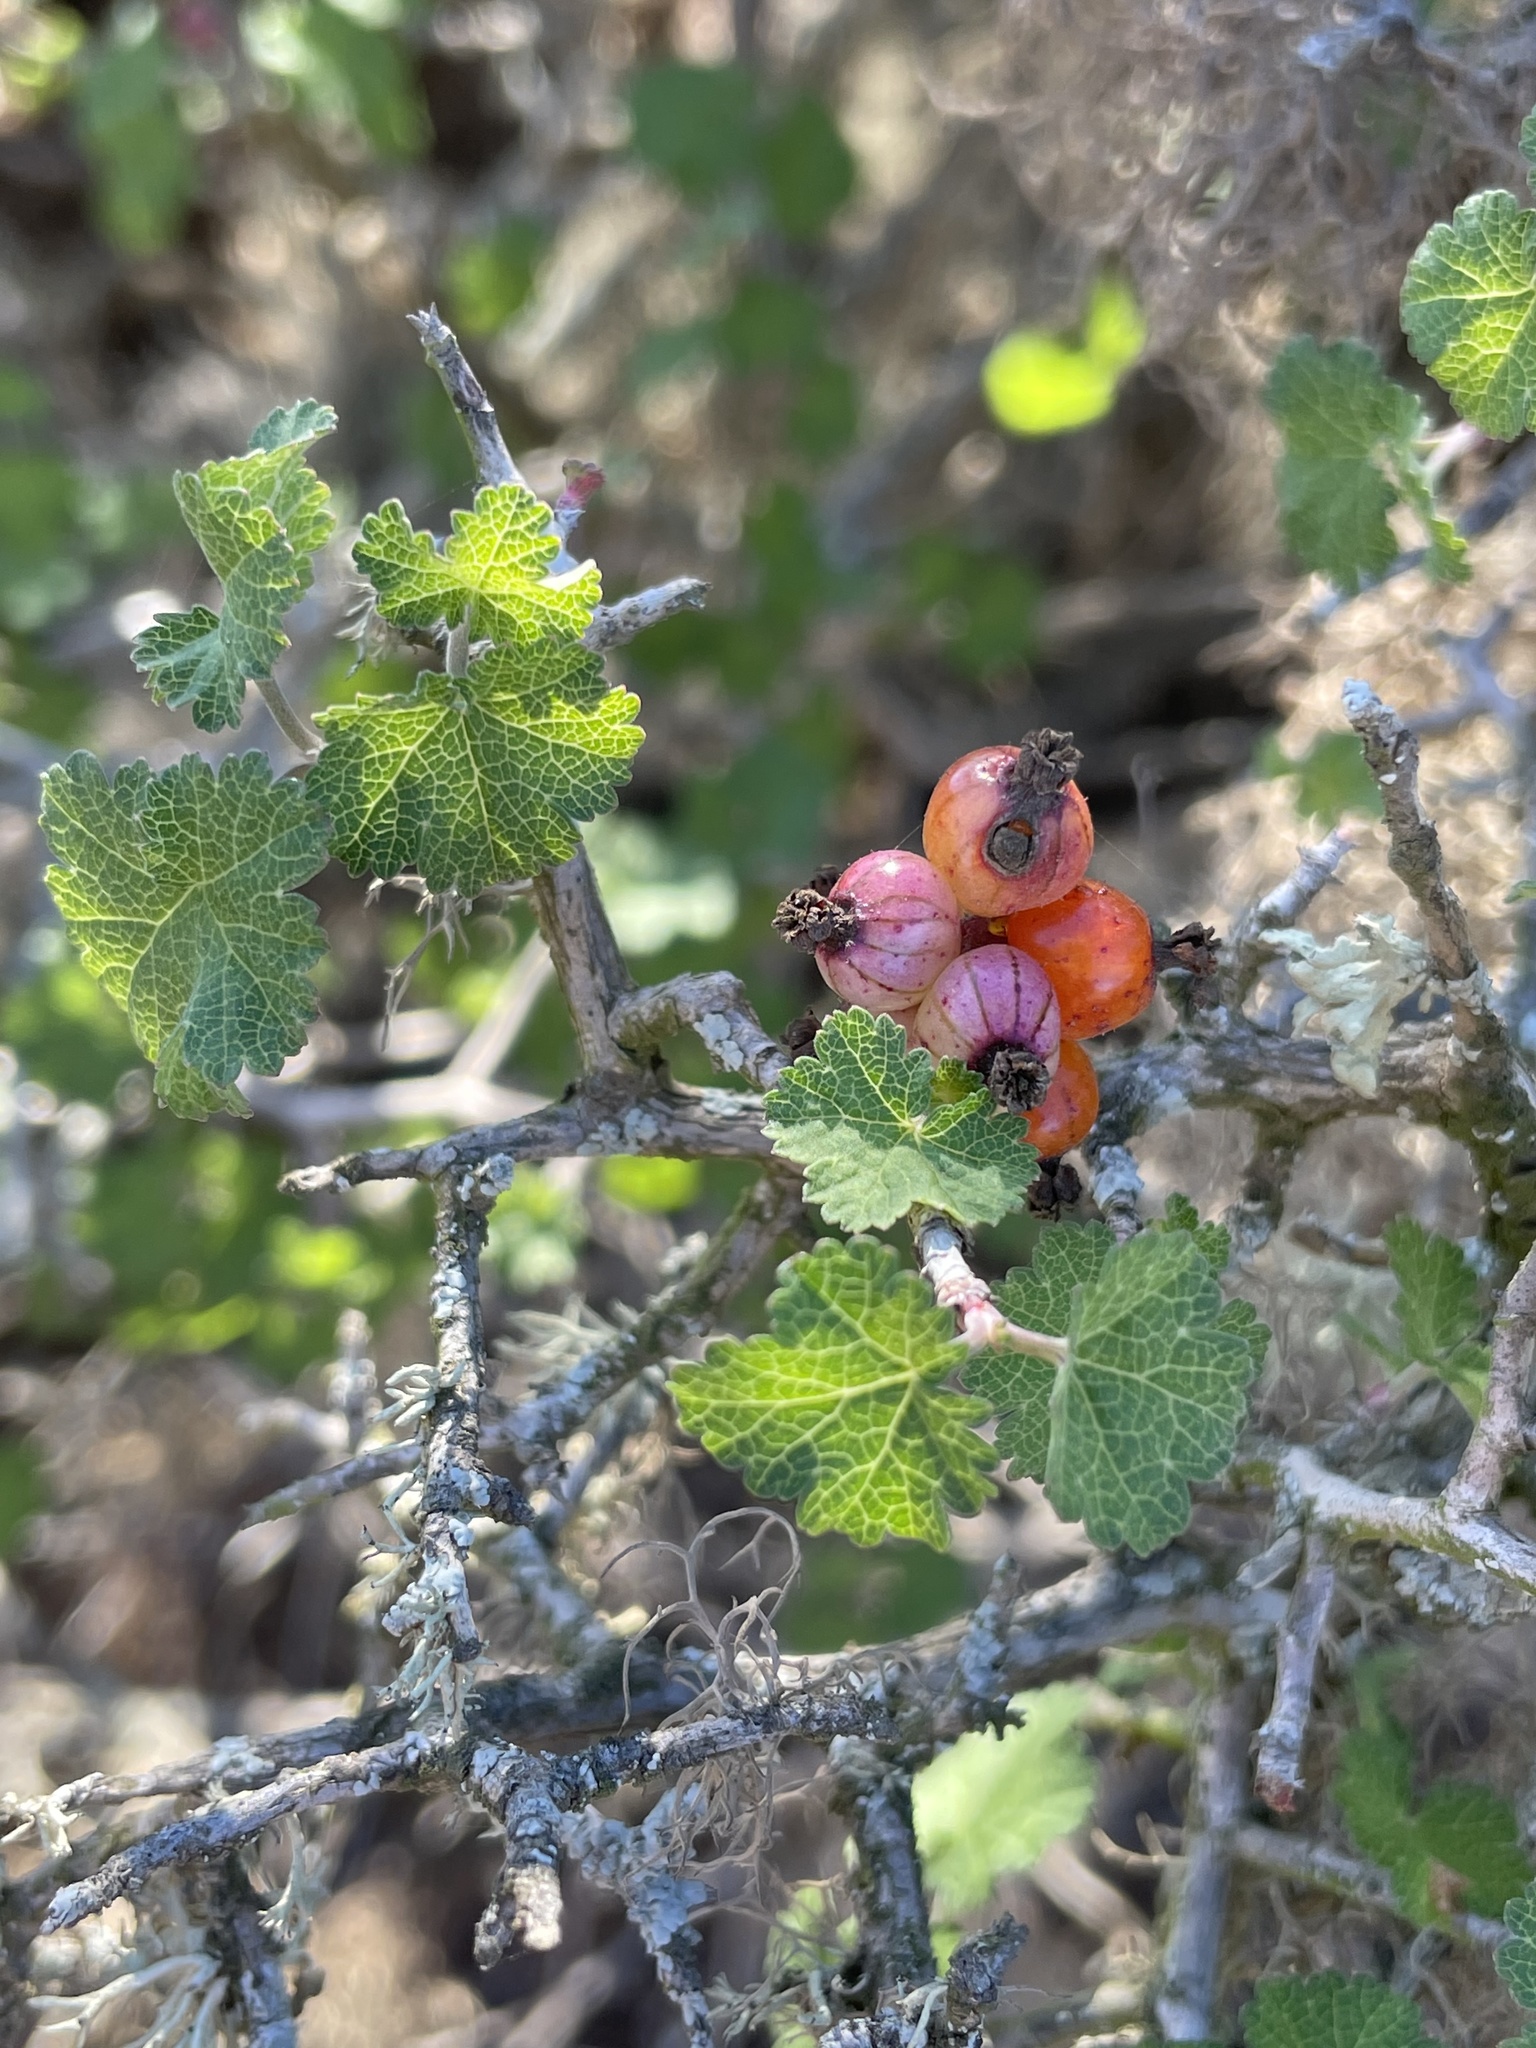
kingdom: Plantae
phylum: Tracheophyta
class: Magnoliopsida
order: Saxifragales
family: Grossulariaceae
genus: Ribes
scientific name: Ribes tortuosum
